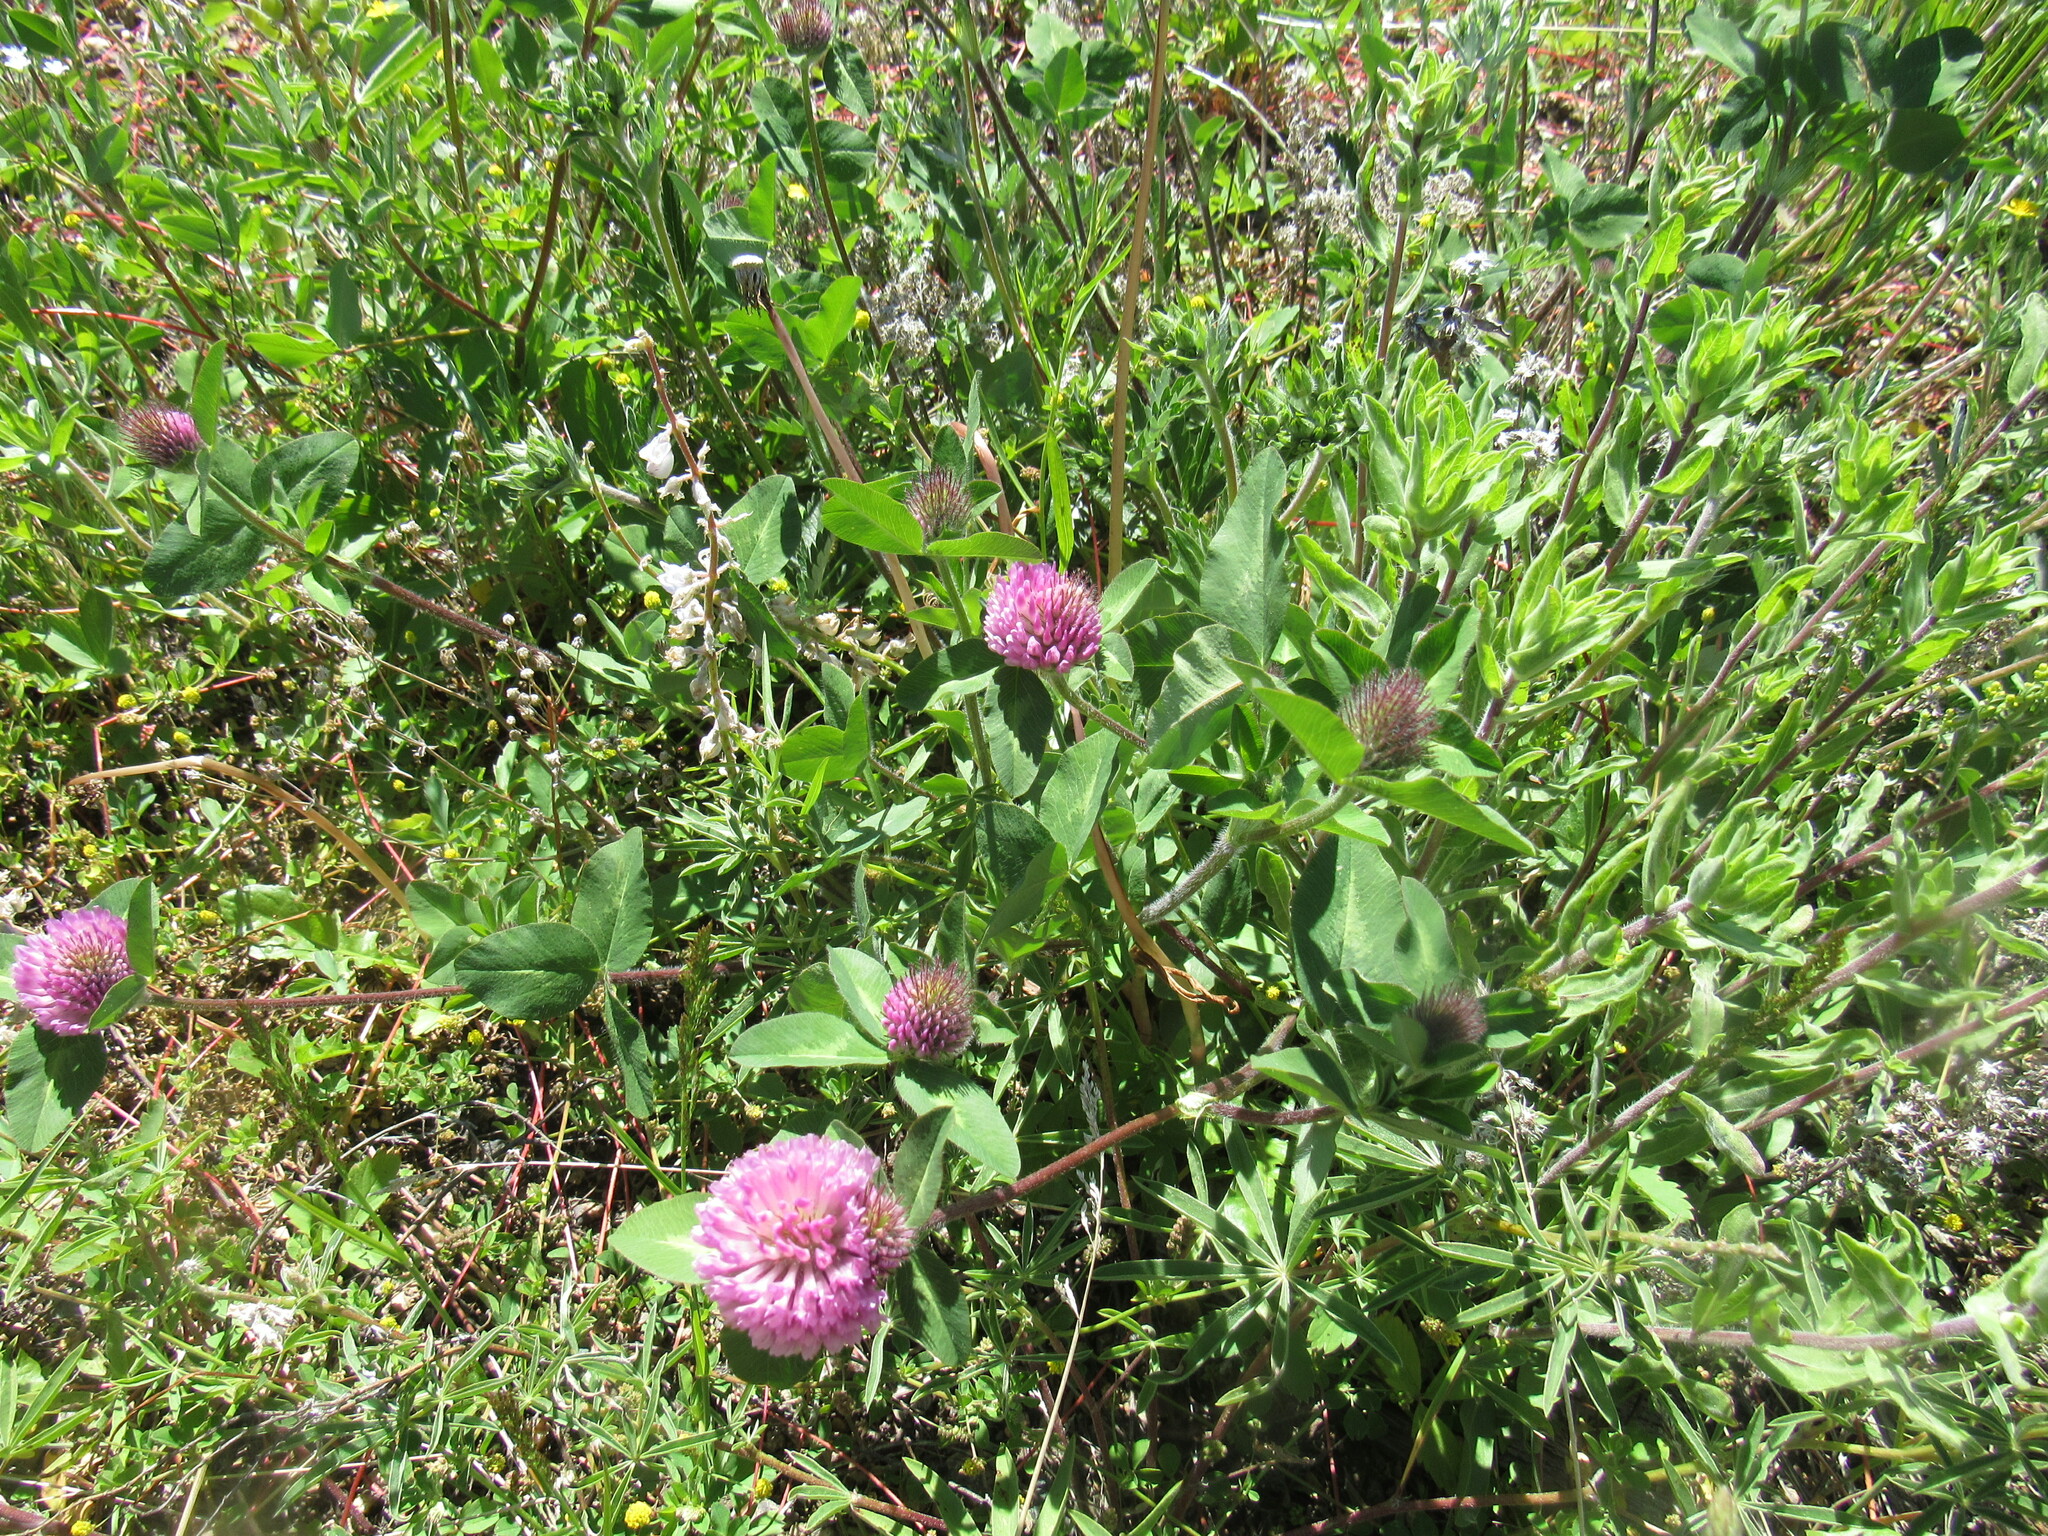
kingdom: Plantae
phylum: Tracheophyta
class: Magnoliopsida
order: Fabales
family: Fabaceae
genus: Trifolium
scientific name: Trifolium pratense
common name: Red clover
